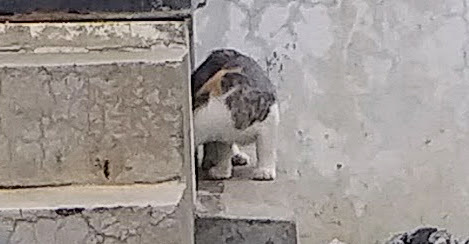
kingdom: Animalia
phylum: Chordata
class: Mammalia
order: Carnivora
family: Felidae
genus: Felis
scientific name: Felis catus
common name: Domestic cat
